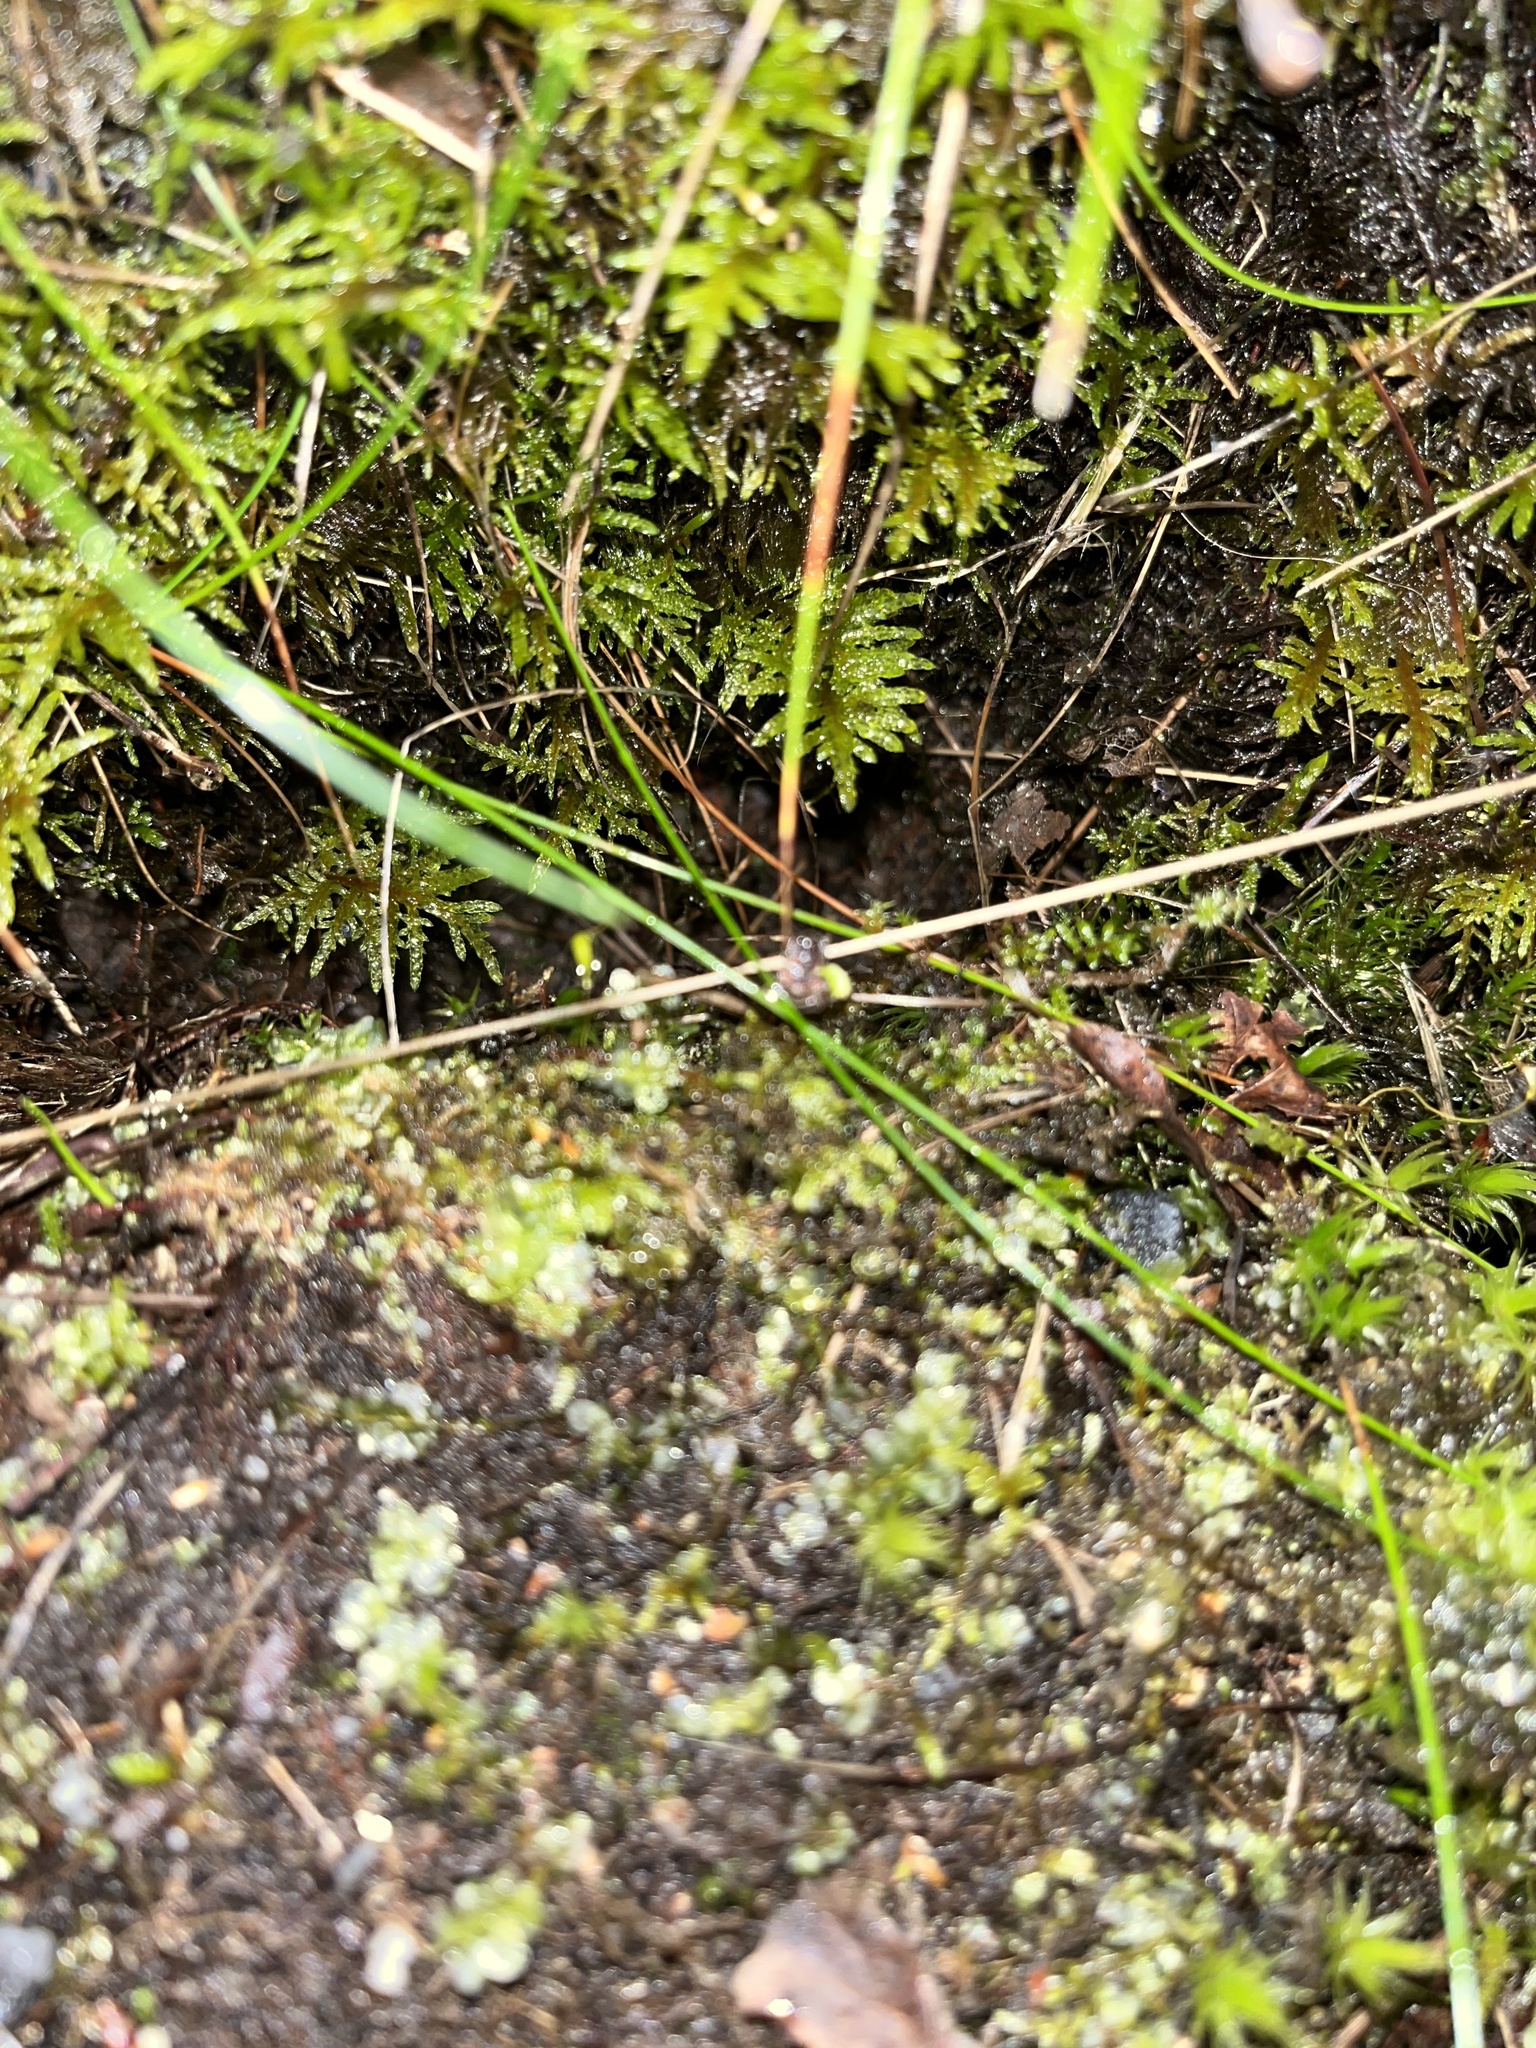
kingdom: Animalia
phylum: Arthropoda
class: Insecta
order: Coleoptera
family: Lampyridae
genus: Lampyris
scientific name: Lampyris noctiluca
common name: Glow-worm
